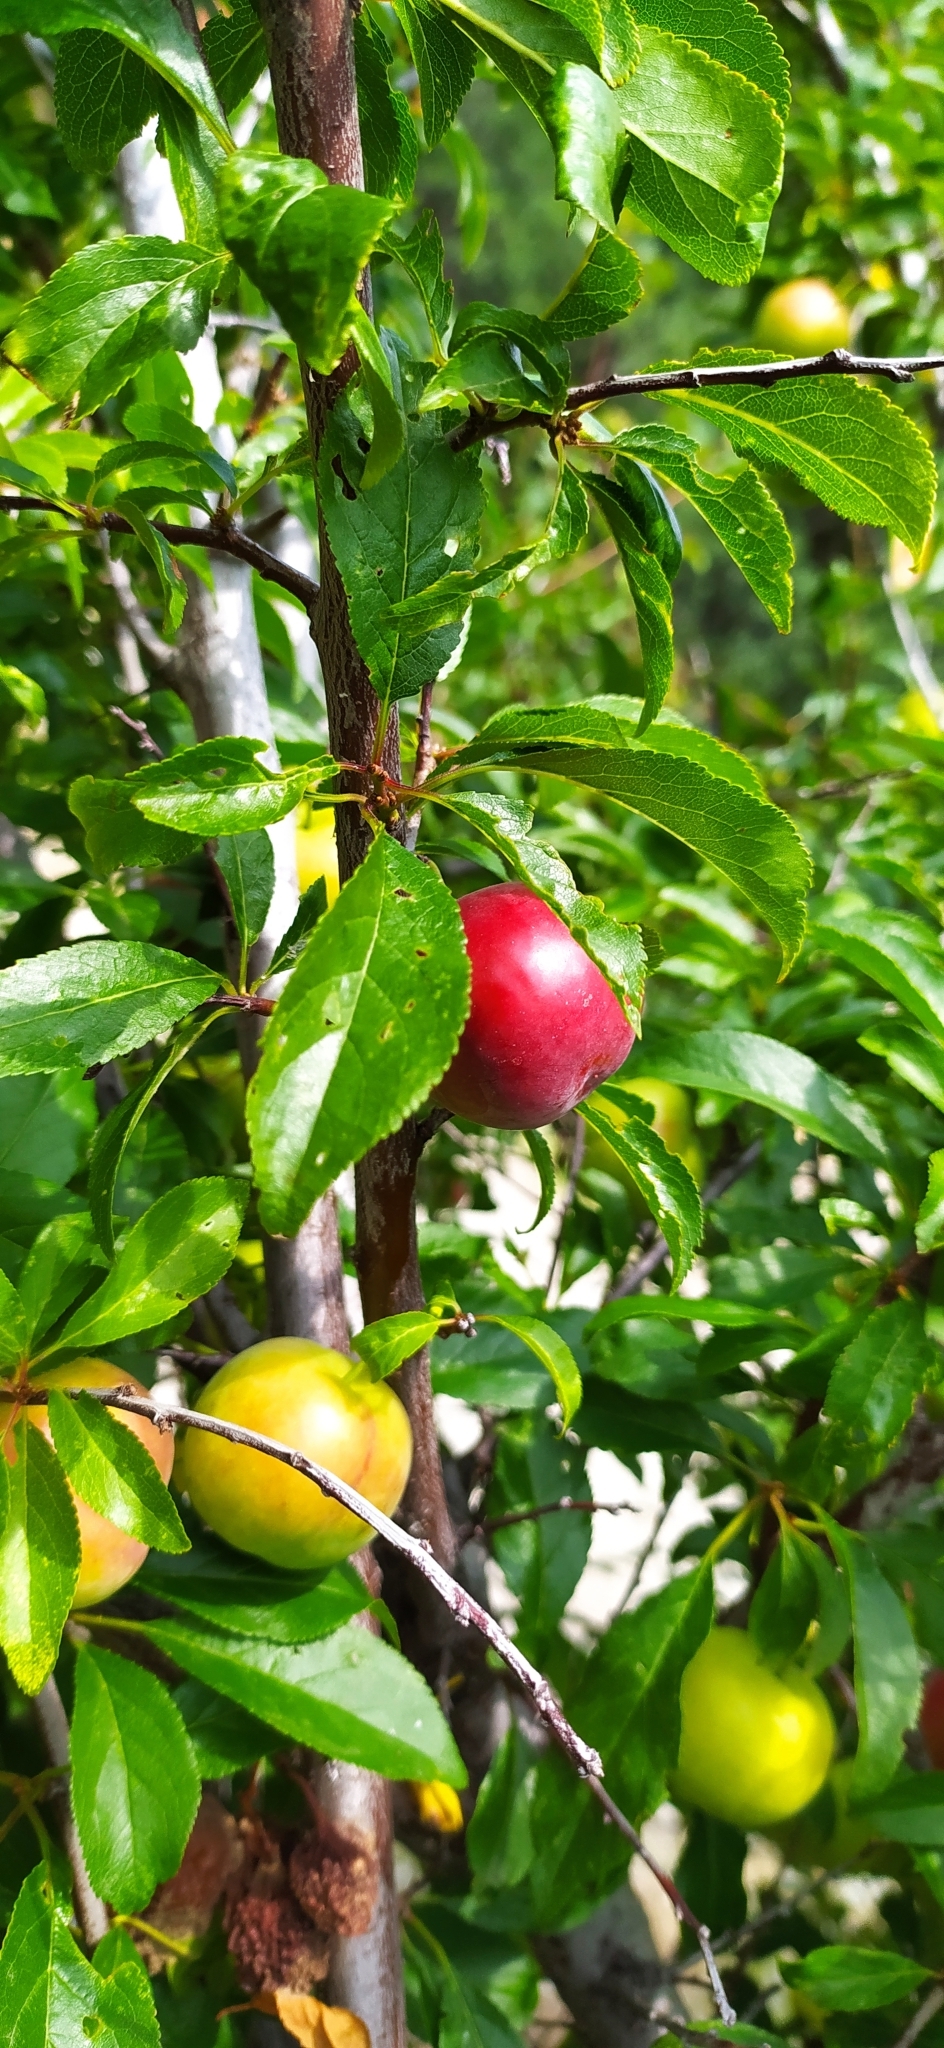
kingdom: Plantae
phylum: Tracheophyta
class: Magnoliopsida
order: Rosales
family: Rosaceae
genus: Prunus
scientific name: Prunus cerasifera
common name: Cherry plum
